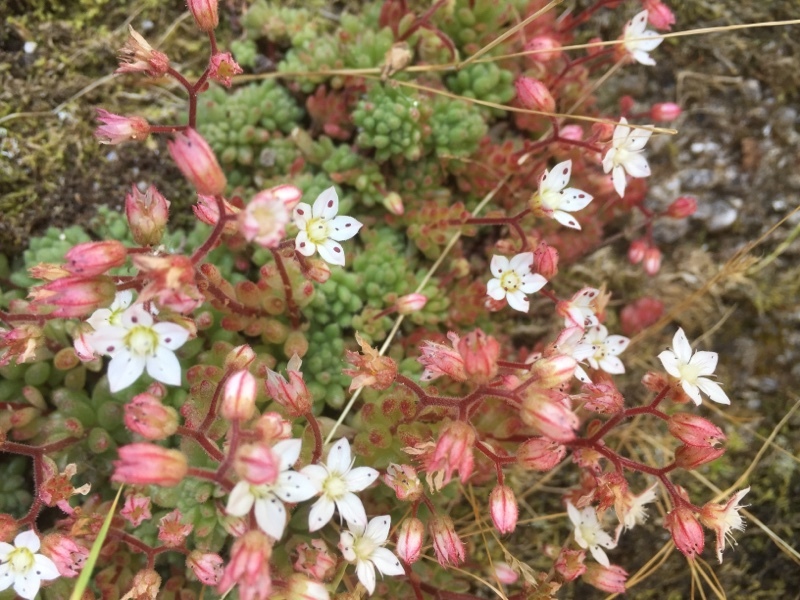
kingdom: Plantae
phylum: Tracheophyta
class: Magnoliopsida
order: Saxifragales
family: Crassulaceae
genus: Sedum
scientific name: Sedum hirsutum
